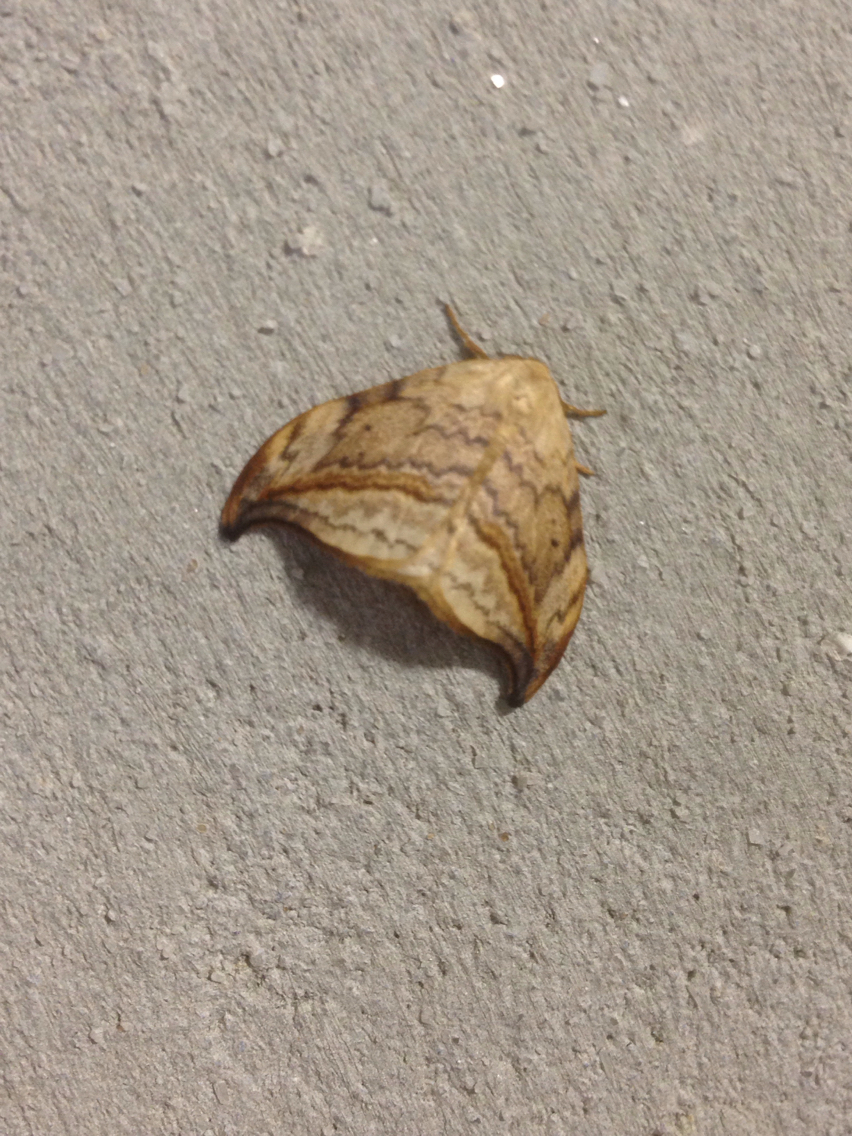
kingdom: Animalia
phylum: Arthropoda
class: Insecta
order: Lepidoptera
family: Drepanidae
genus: Drepana
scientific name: Drepana arcuata
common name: Arched hooktip moth
